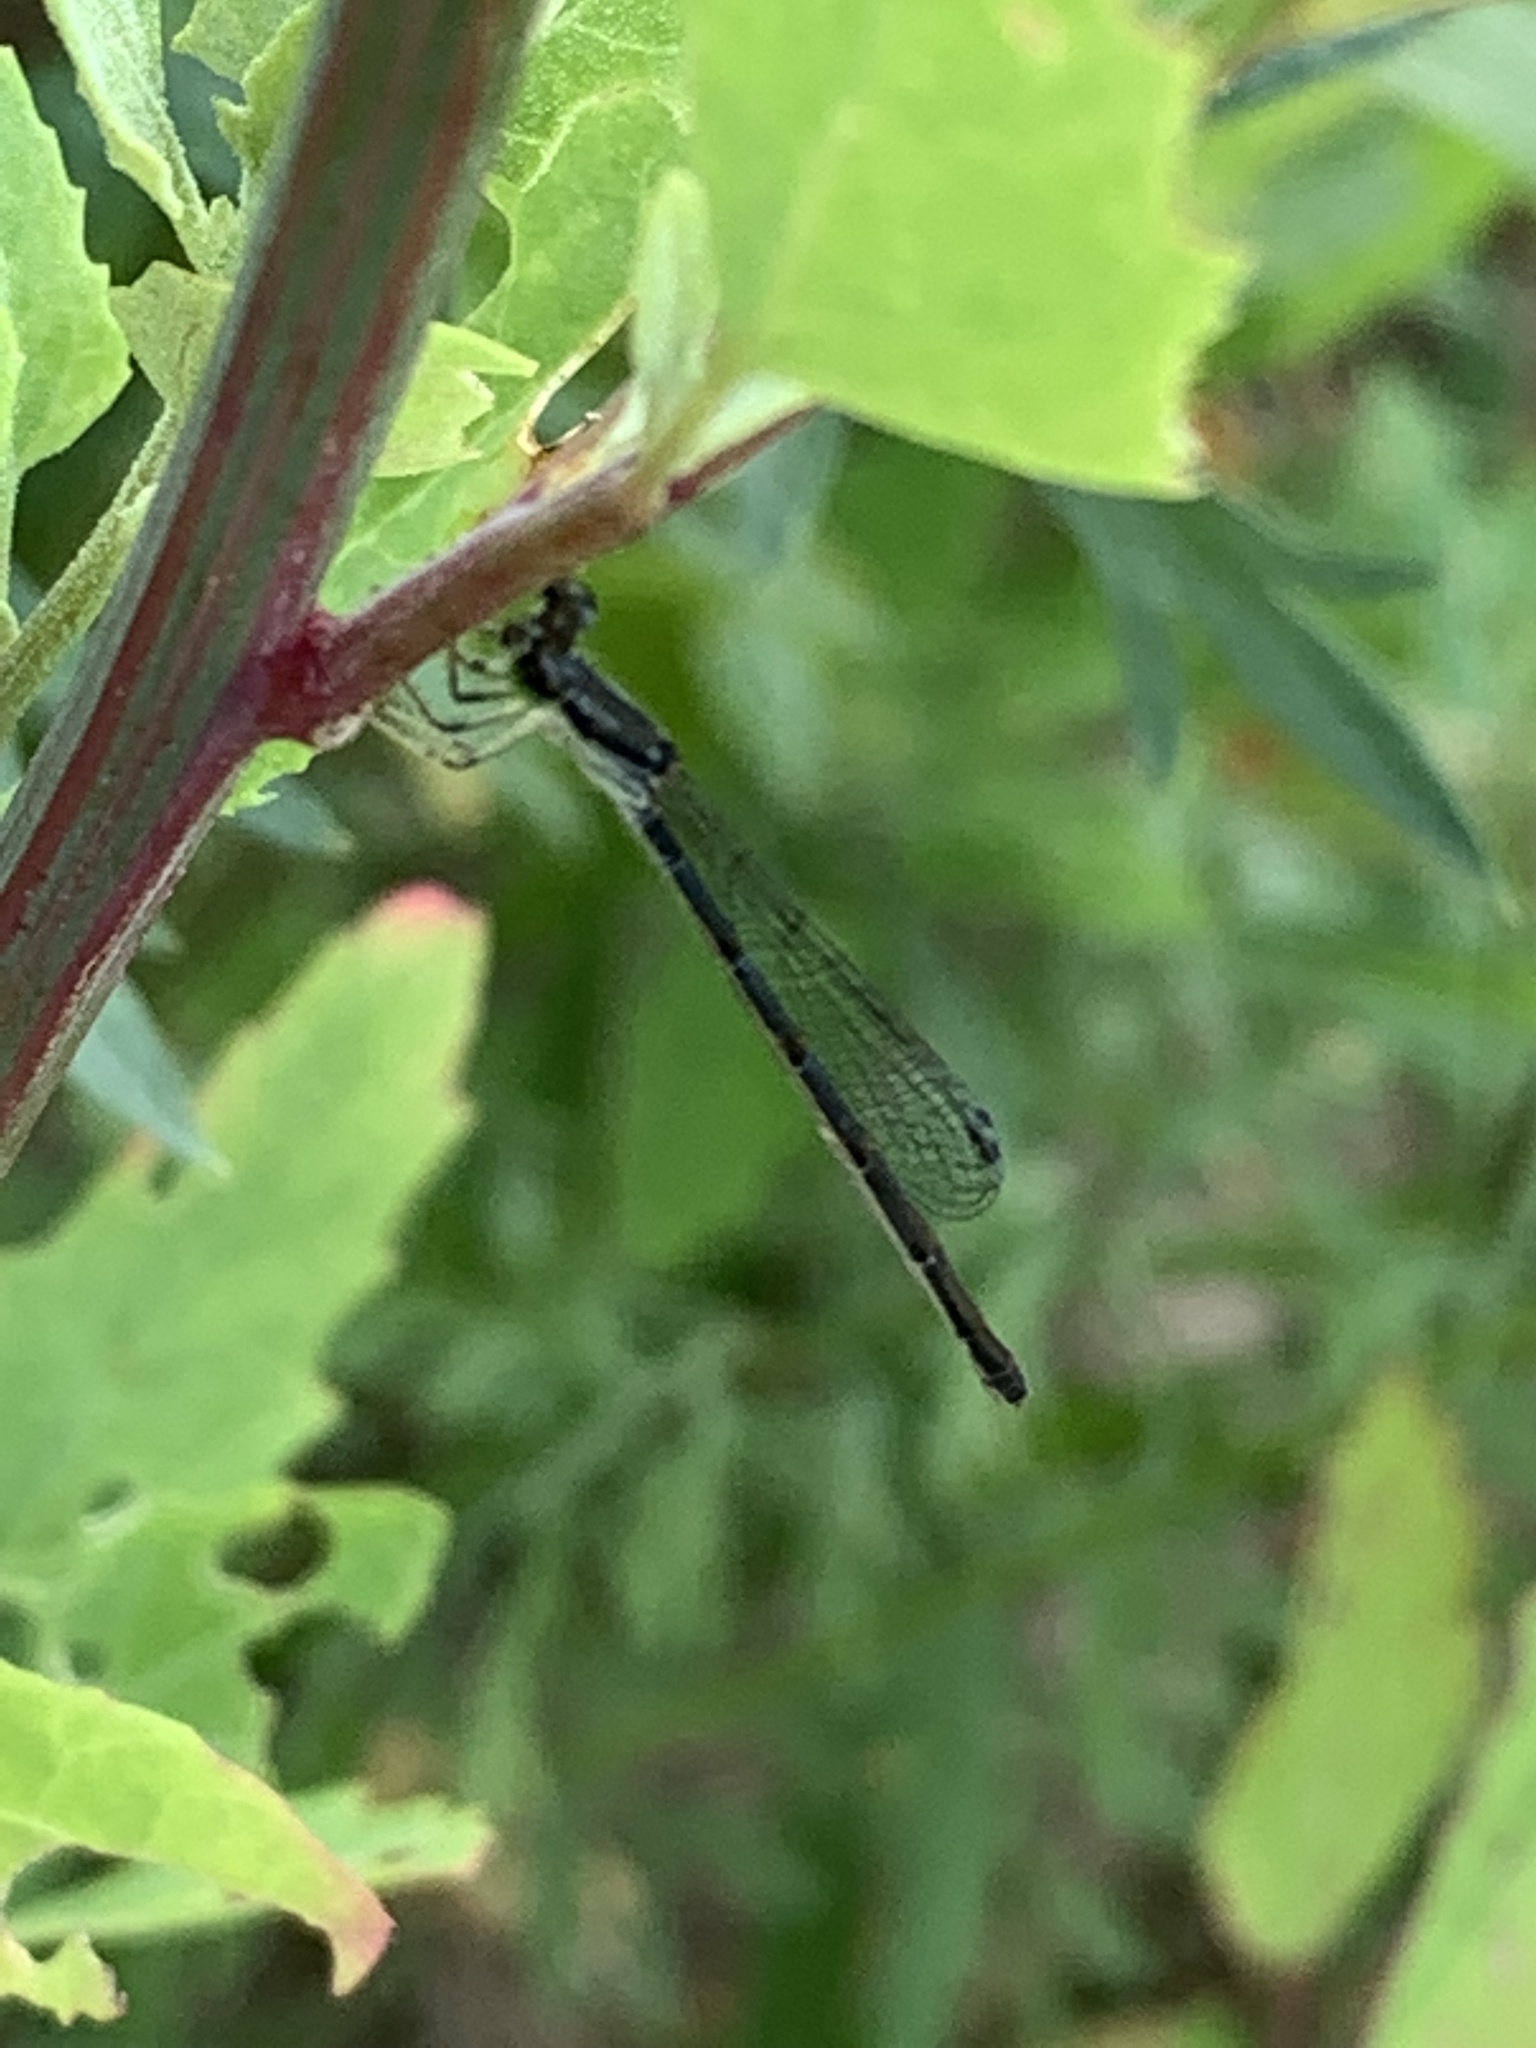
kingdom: Animalia
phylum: Arthropoda
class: Insecta
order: Odonata
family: Coenagrionidae
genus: Ischnura
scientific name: Ischnura posita
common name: Fragile forktail
